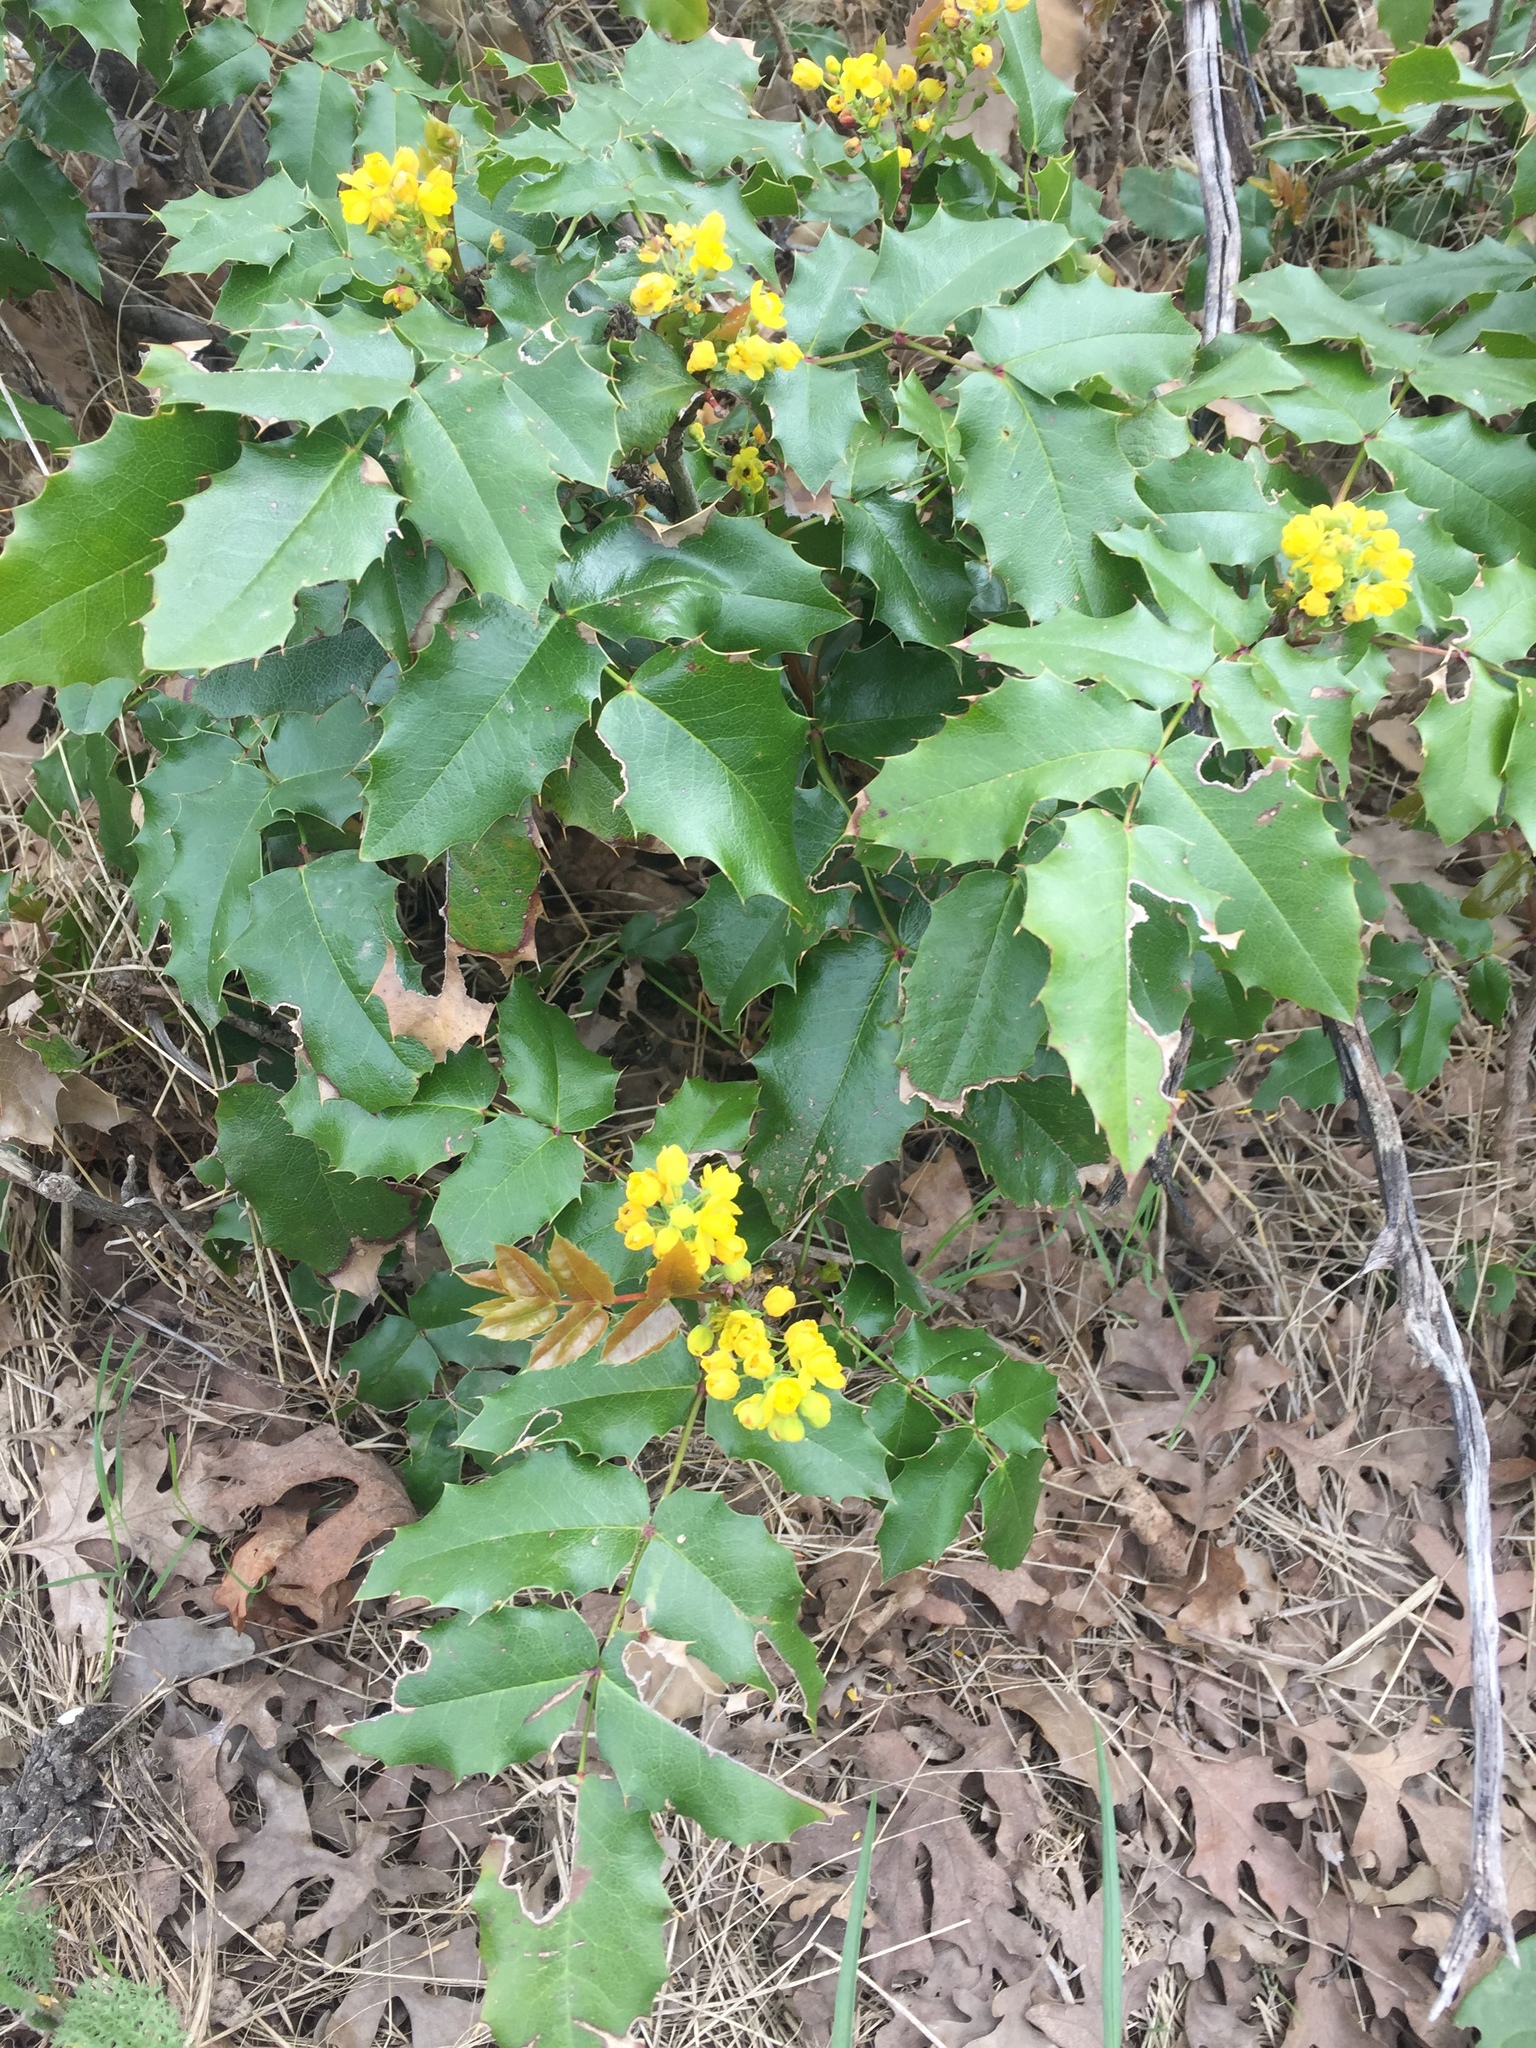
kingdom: Plantae
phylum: Tracheophyta
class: Magnoliopsida
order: Ranunculales
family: Berberidaceae
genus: Mahonia
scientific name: Mahonia aquifolium
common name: Oregon-grape
